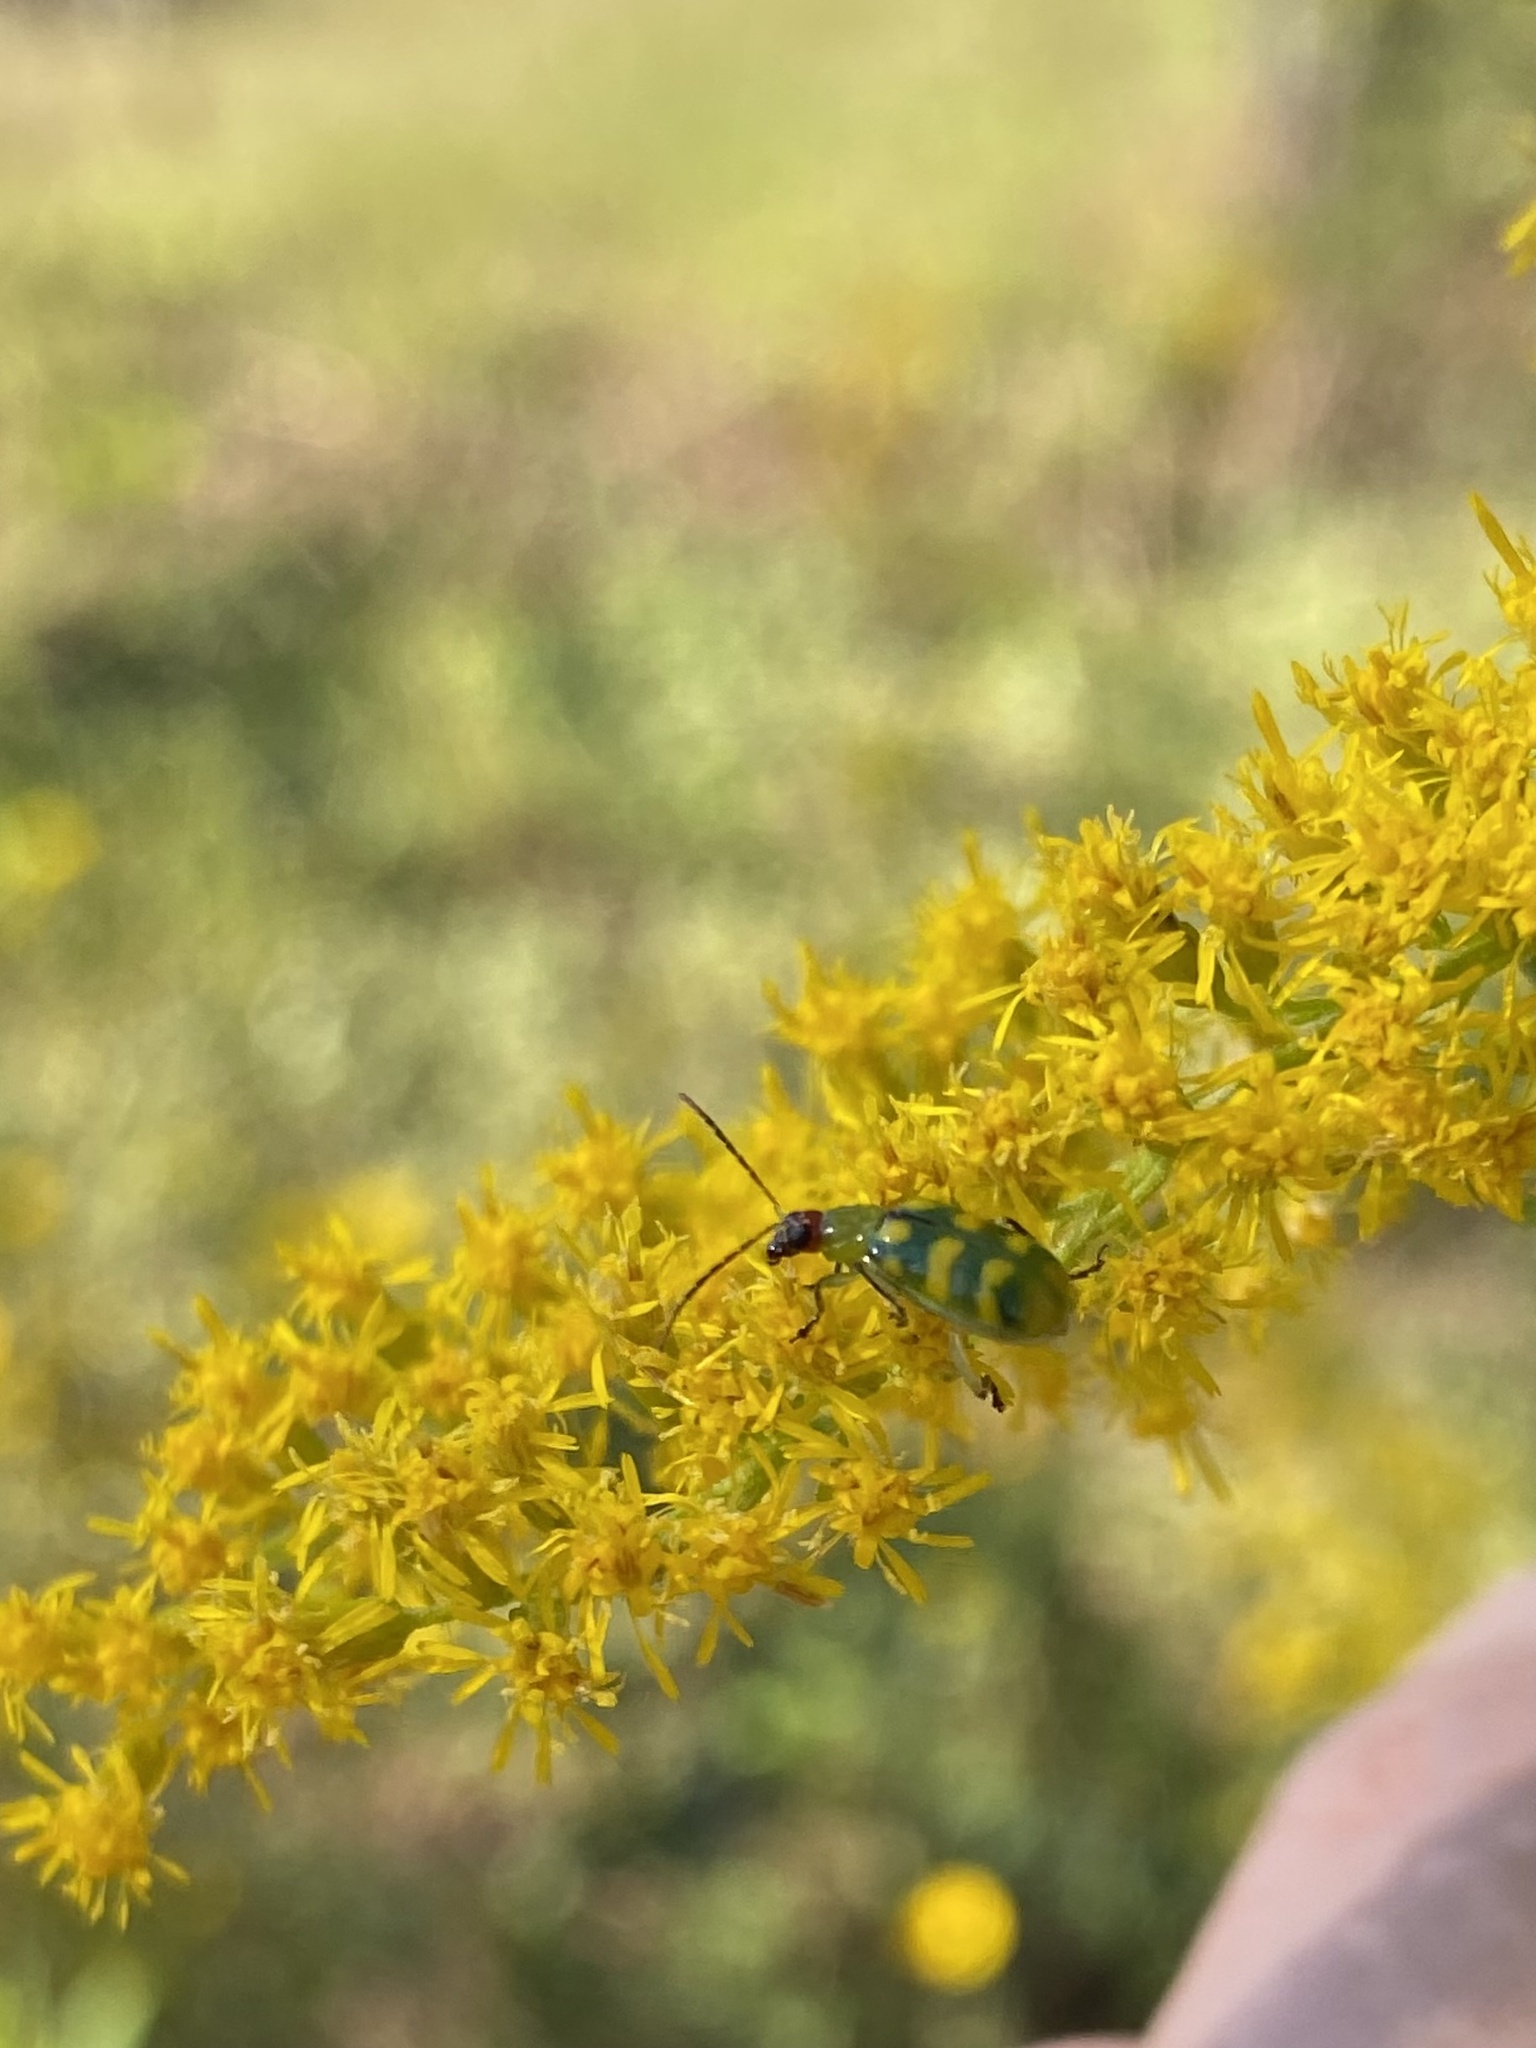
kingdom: Animalia
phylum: Arthropoda
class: Insecta
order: Coleoptera
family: Chrysomelidae
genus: Diabrotica
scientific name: Diabrotica balteata
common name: Leaf beetle
